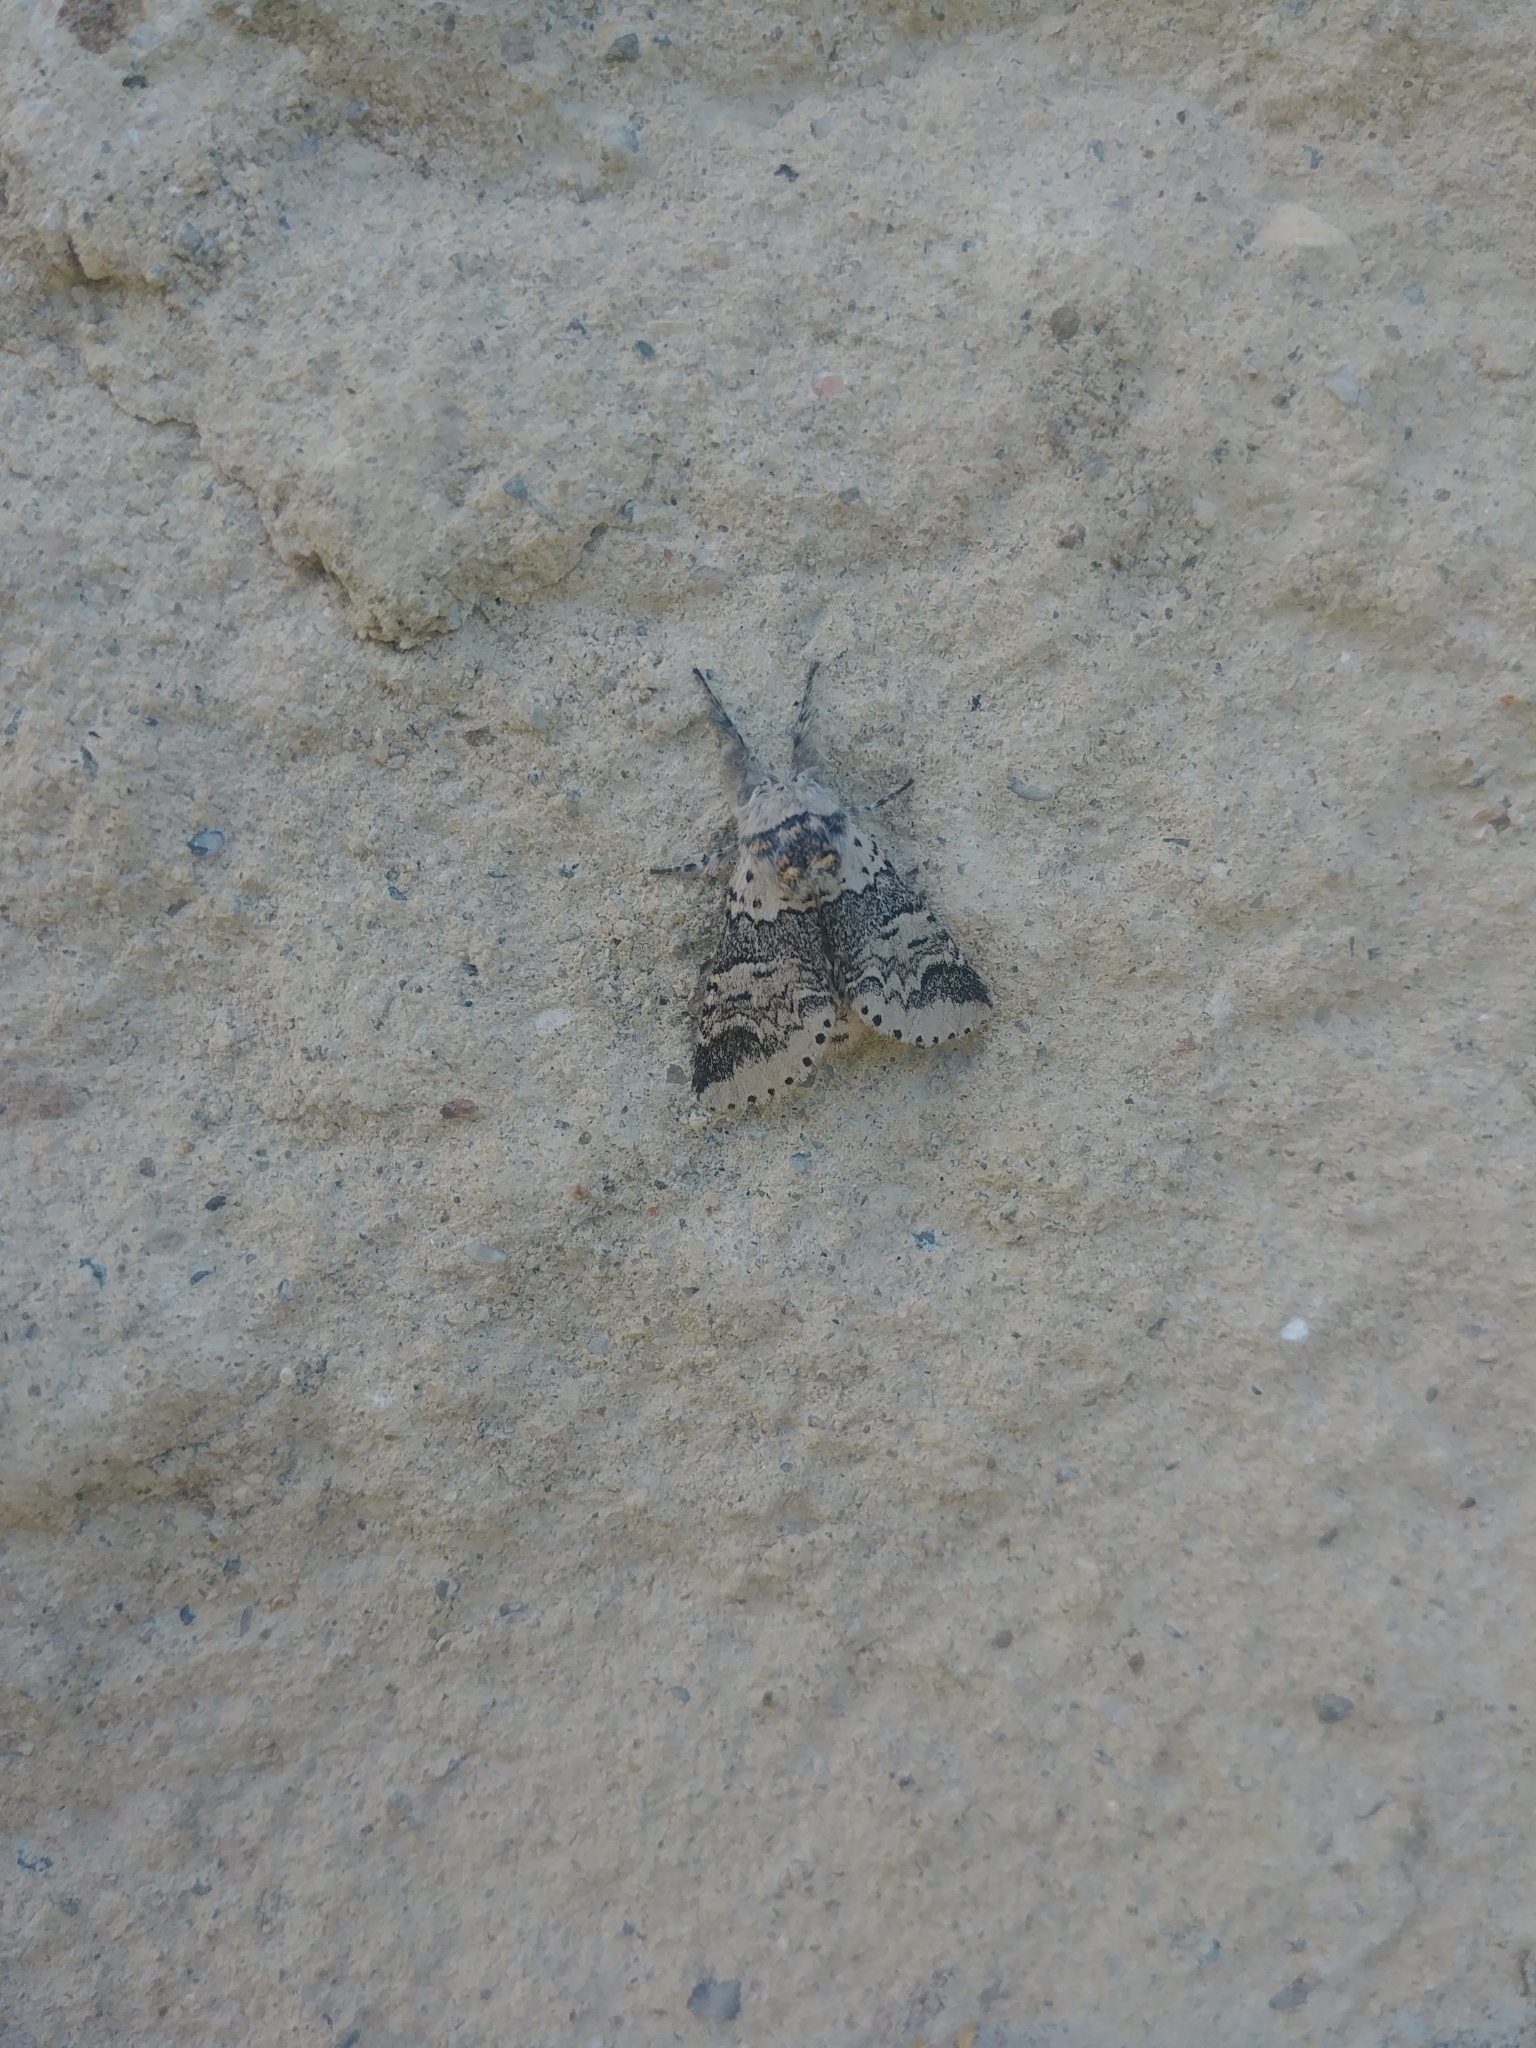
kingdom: Animalia
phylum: Arthropoda
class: Insecta
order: Lepidoptera
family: Notodontidae
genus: Furcula
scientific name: Furcula occidentalis
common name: Western furcula moth
